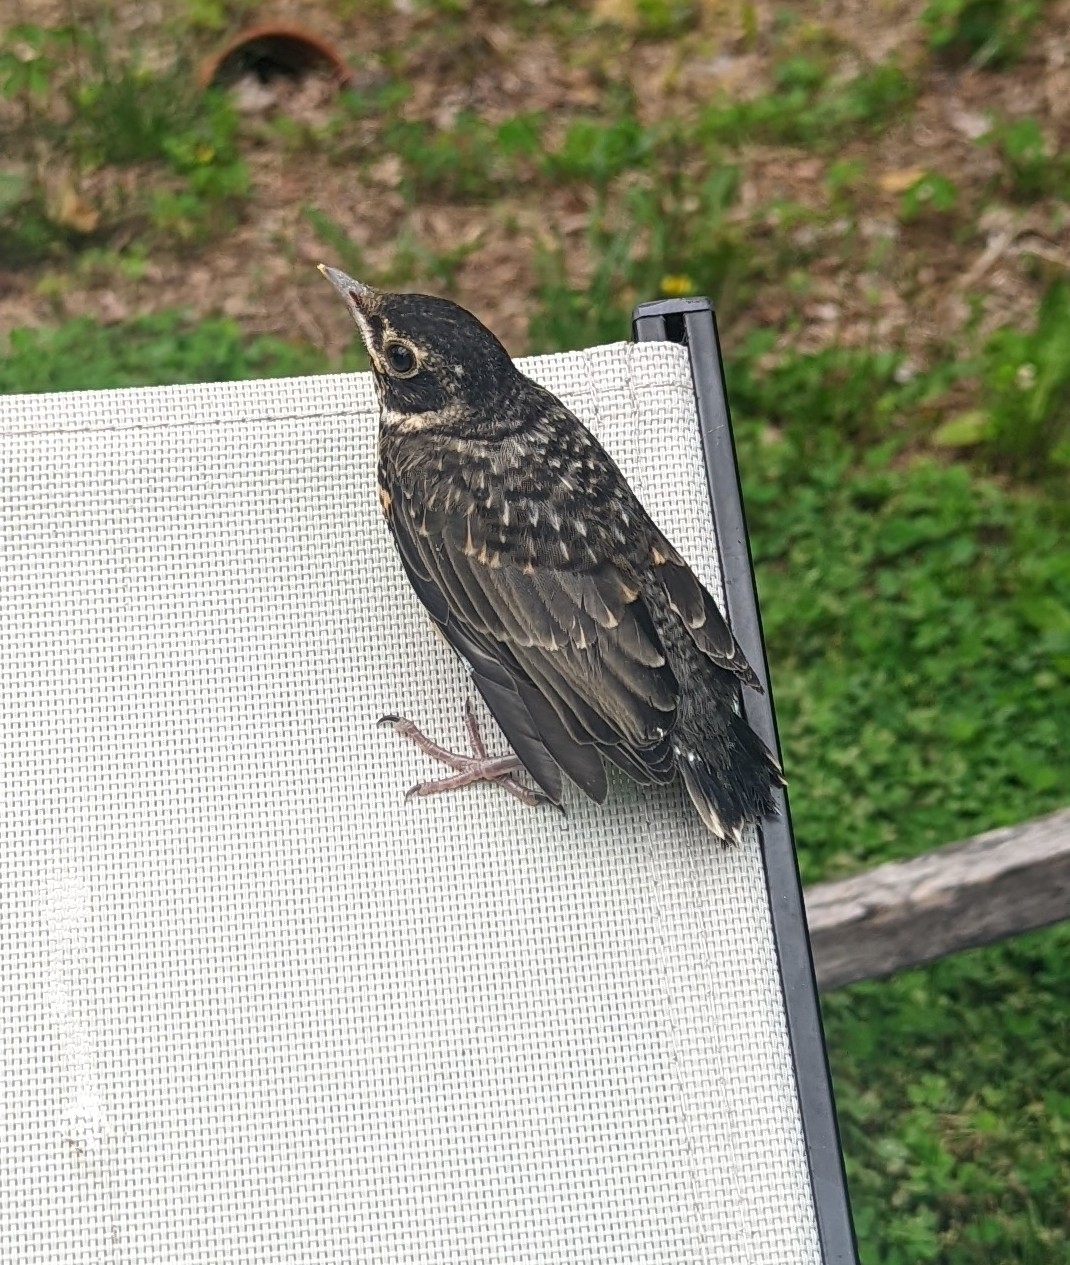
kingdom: Animalia
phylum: Chordata
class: Aves
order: Passeriformes
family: Turdidae
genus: Turdus
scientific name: Turdus migratorius
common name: American robin
